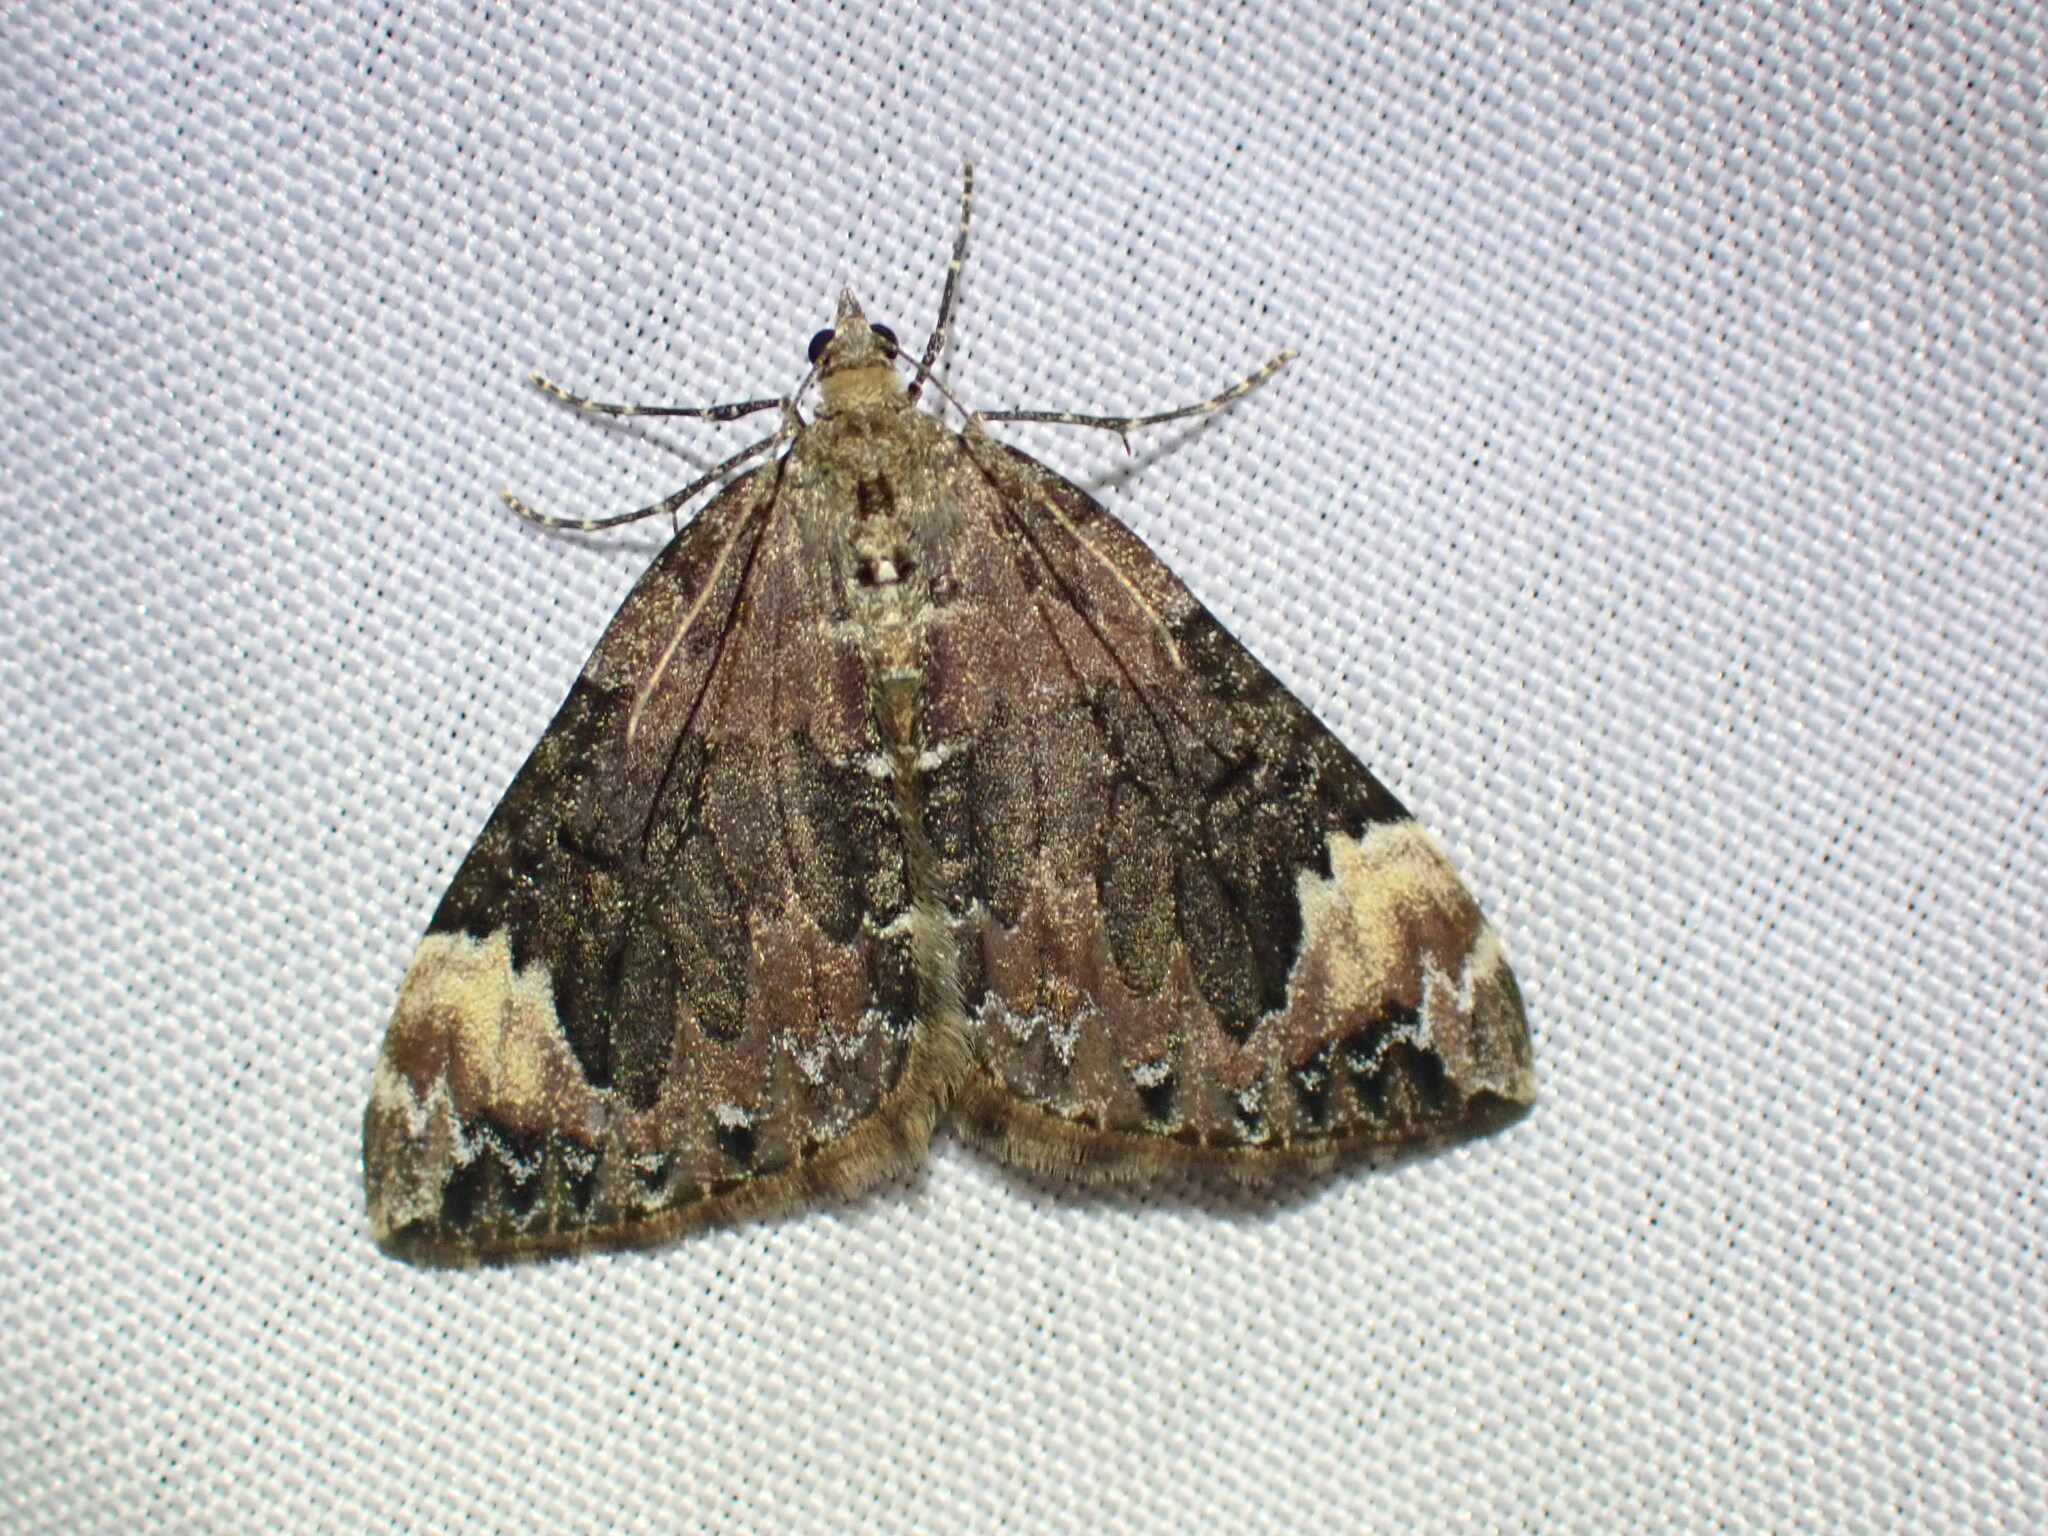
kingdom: Animalia
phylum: Arthropoda
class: Insecta
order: Lepidoptera
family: Geometridae
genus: Dysstroma
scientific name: Dysstroma citrata
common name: Dark marbled carpet
